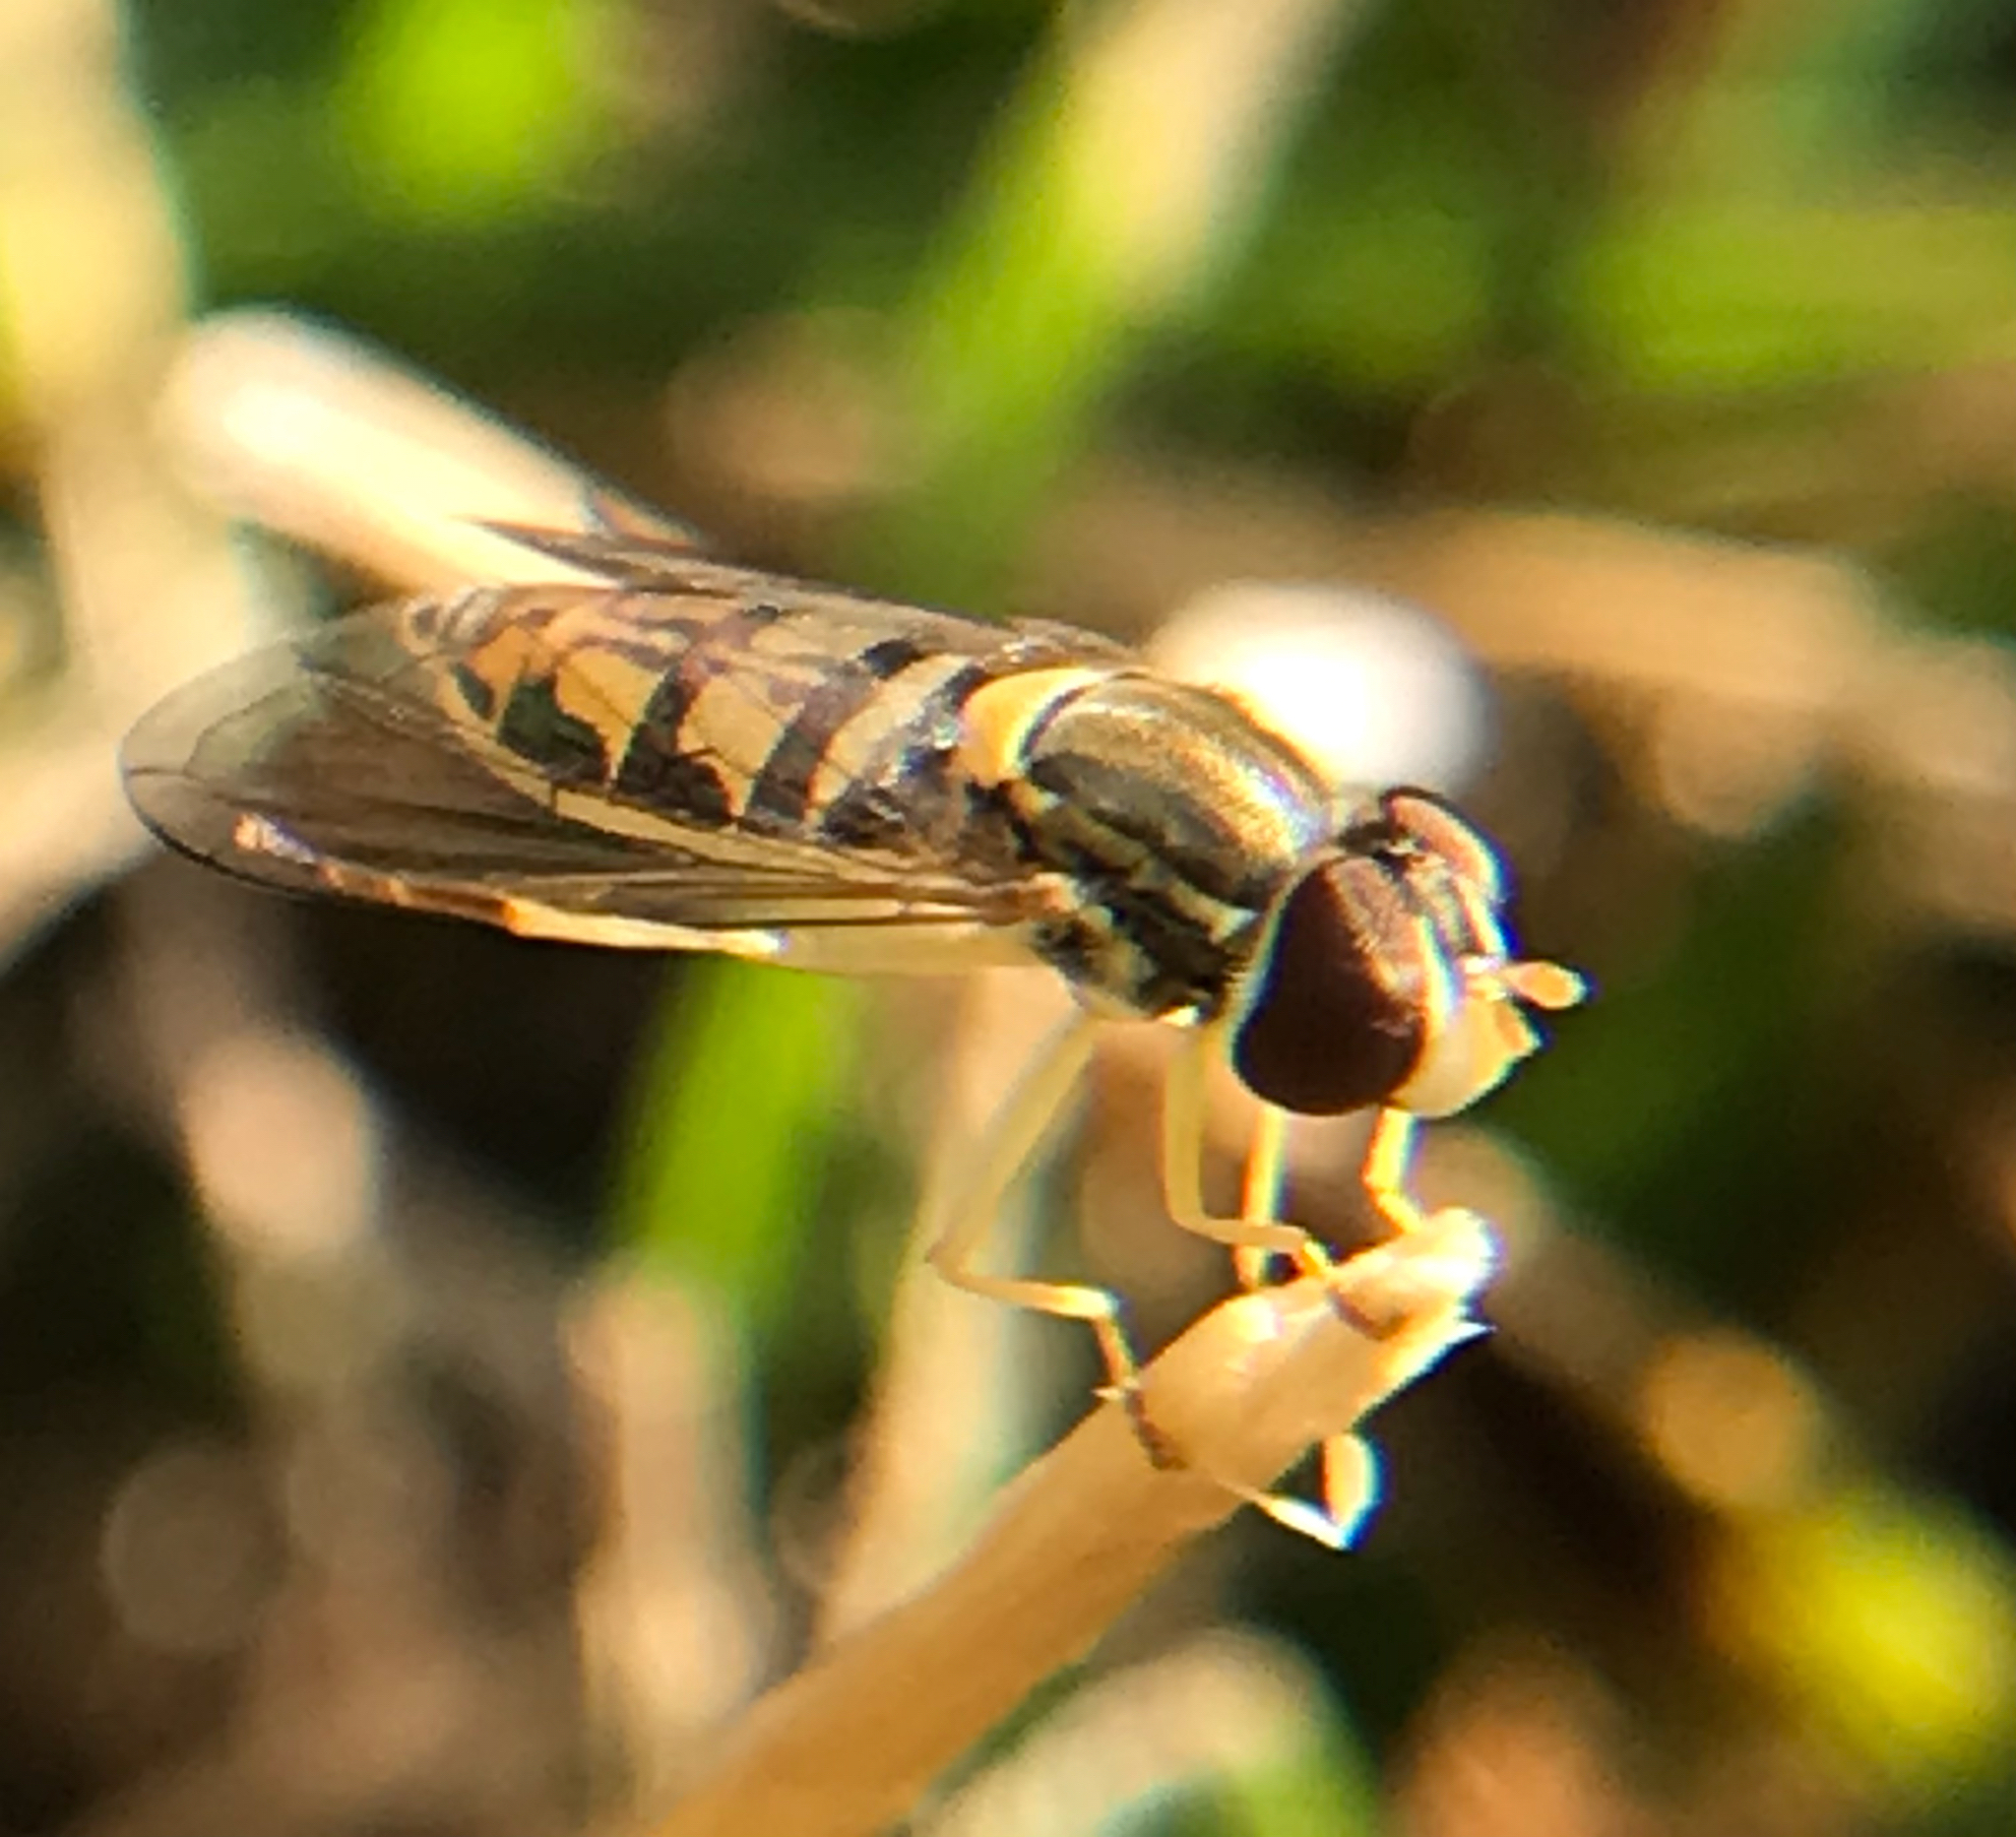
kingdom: Animalia
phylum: Arthropoda
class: Insecta
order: Diptera
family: Syrphidae
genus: Toxomerus
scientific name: Toxomerus marginatus
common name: Syrphid fly
